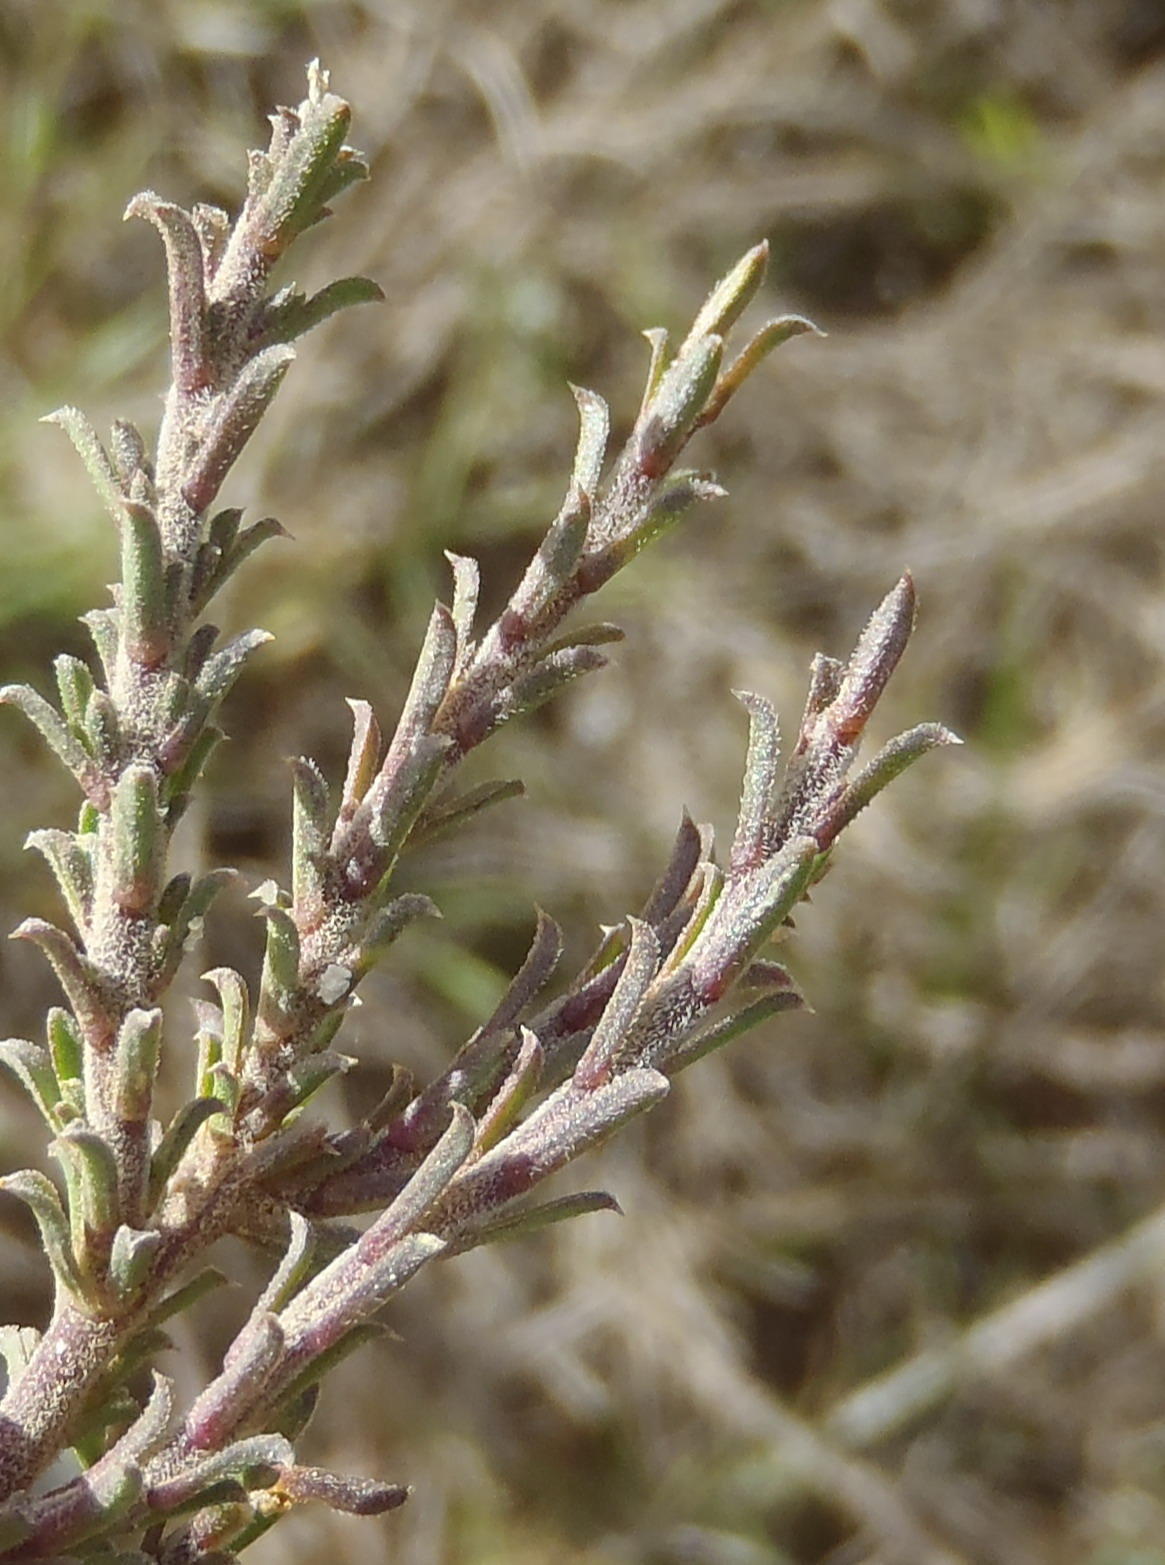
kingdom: Plantae
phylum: Tracheophyta
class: Magnoliopsida
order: Fabales
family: Polygalaceae
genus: Muraltia
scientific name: Muraltia barkerae
